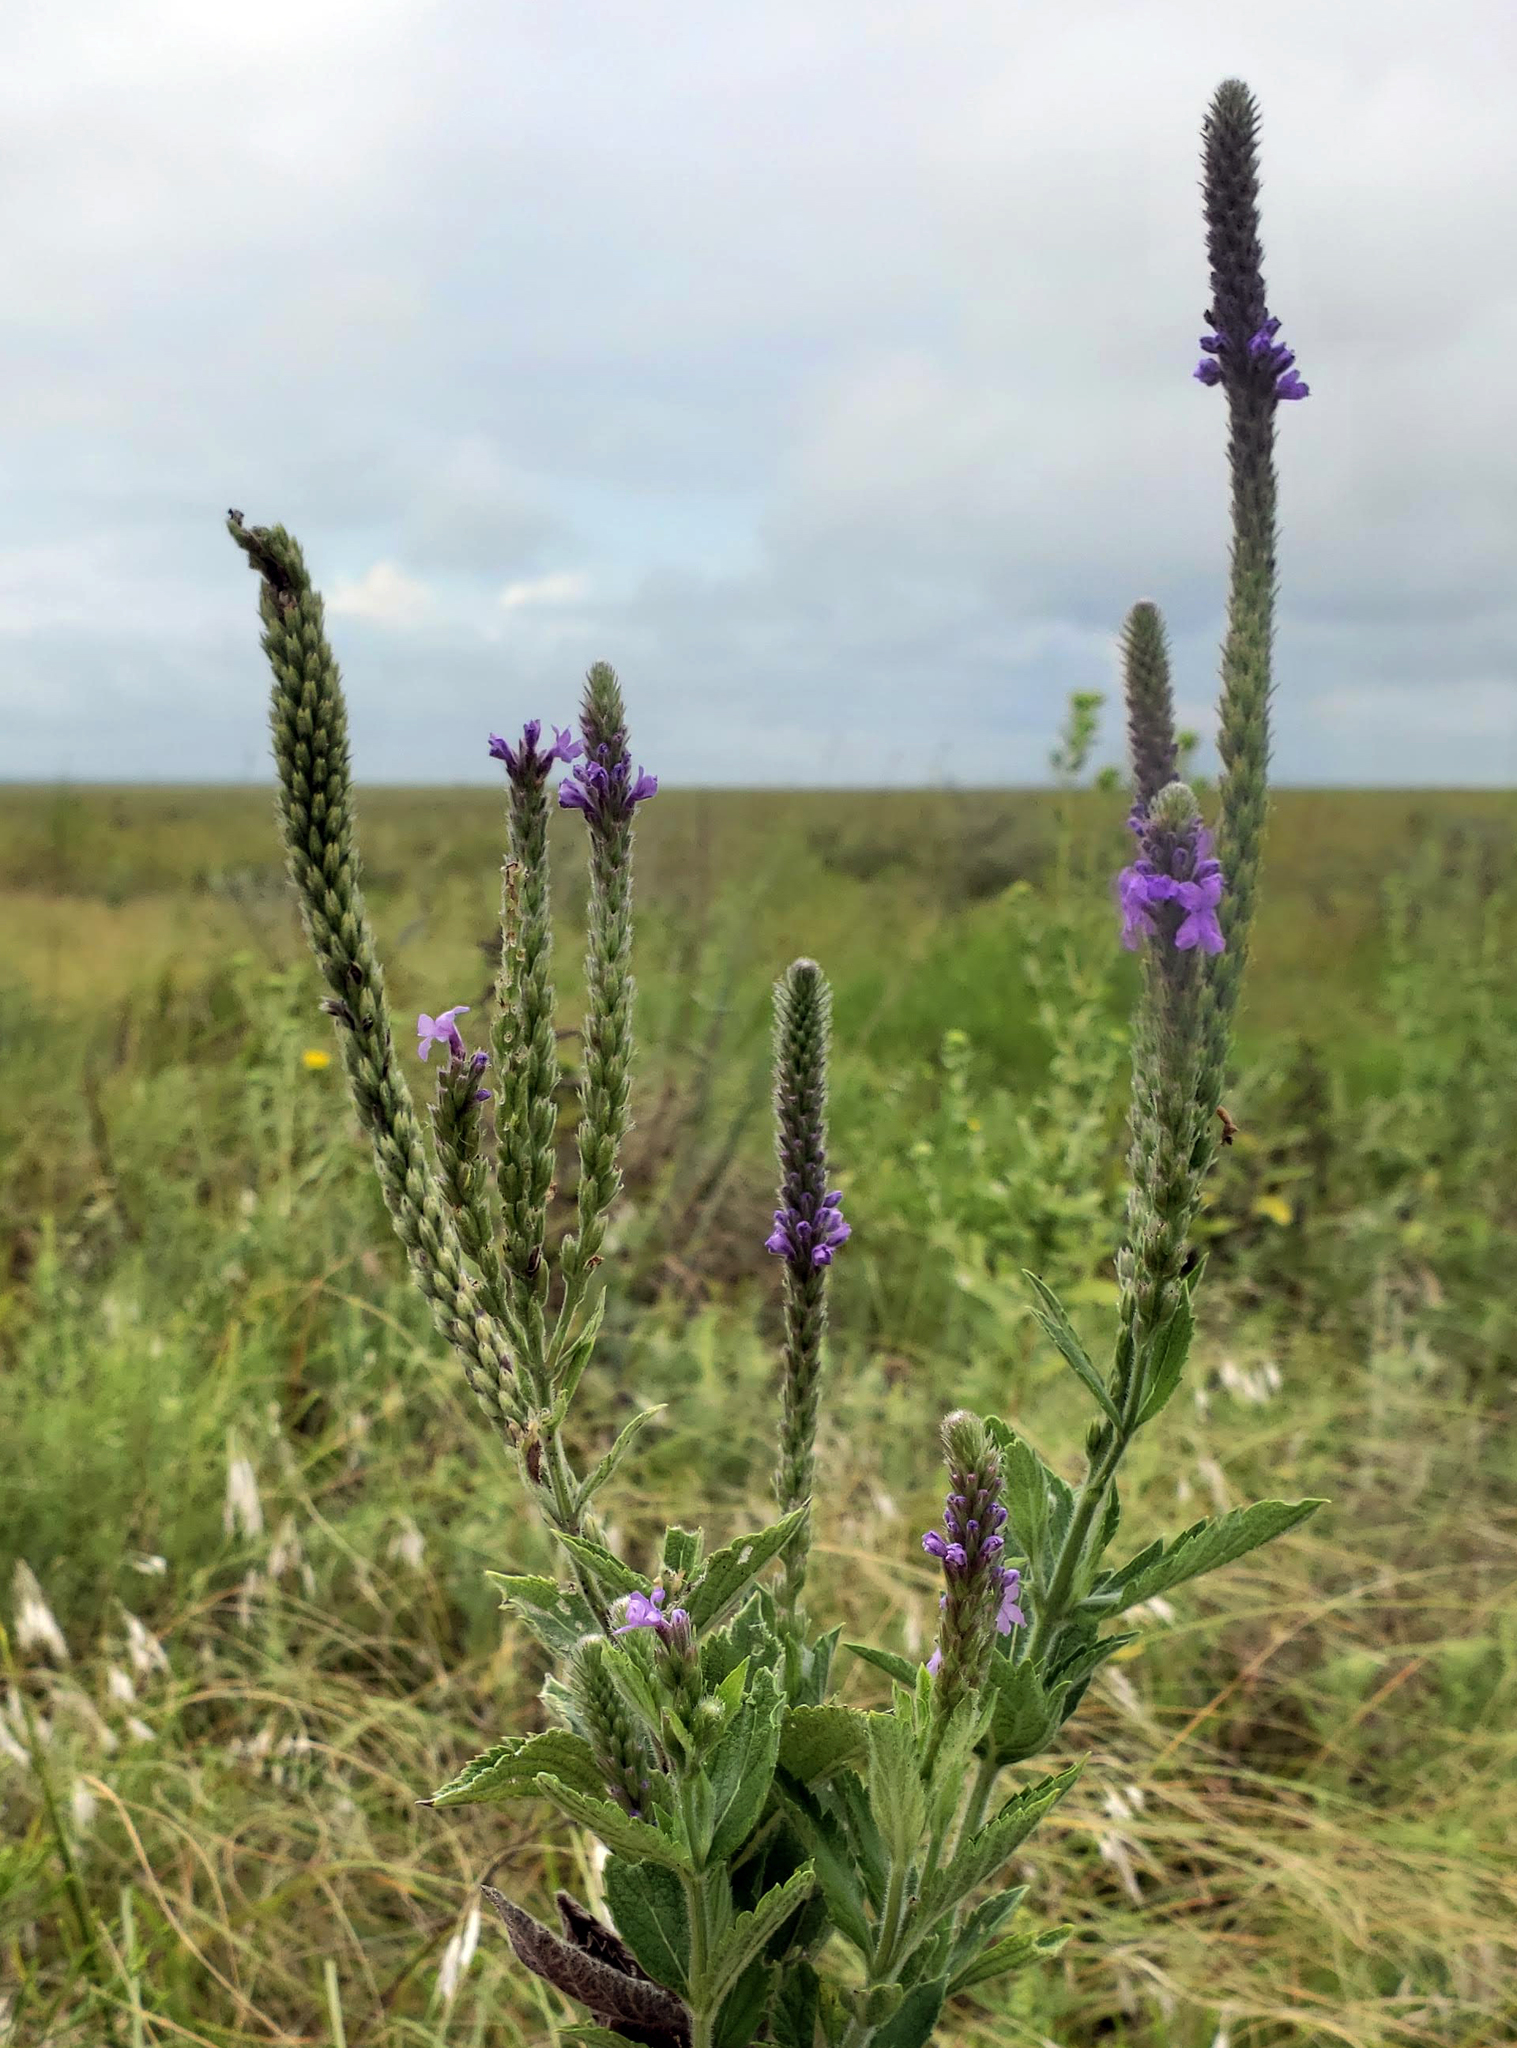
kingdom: Plantae
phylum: Tracheophyta
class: Magnoliopsida
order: Lamiales
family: Verbenaceae
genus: Verbena
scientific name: Verbena stricta
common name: Hoary vervain
